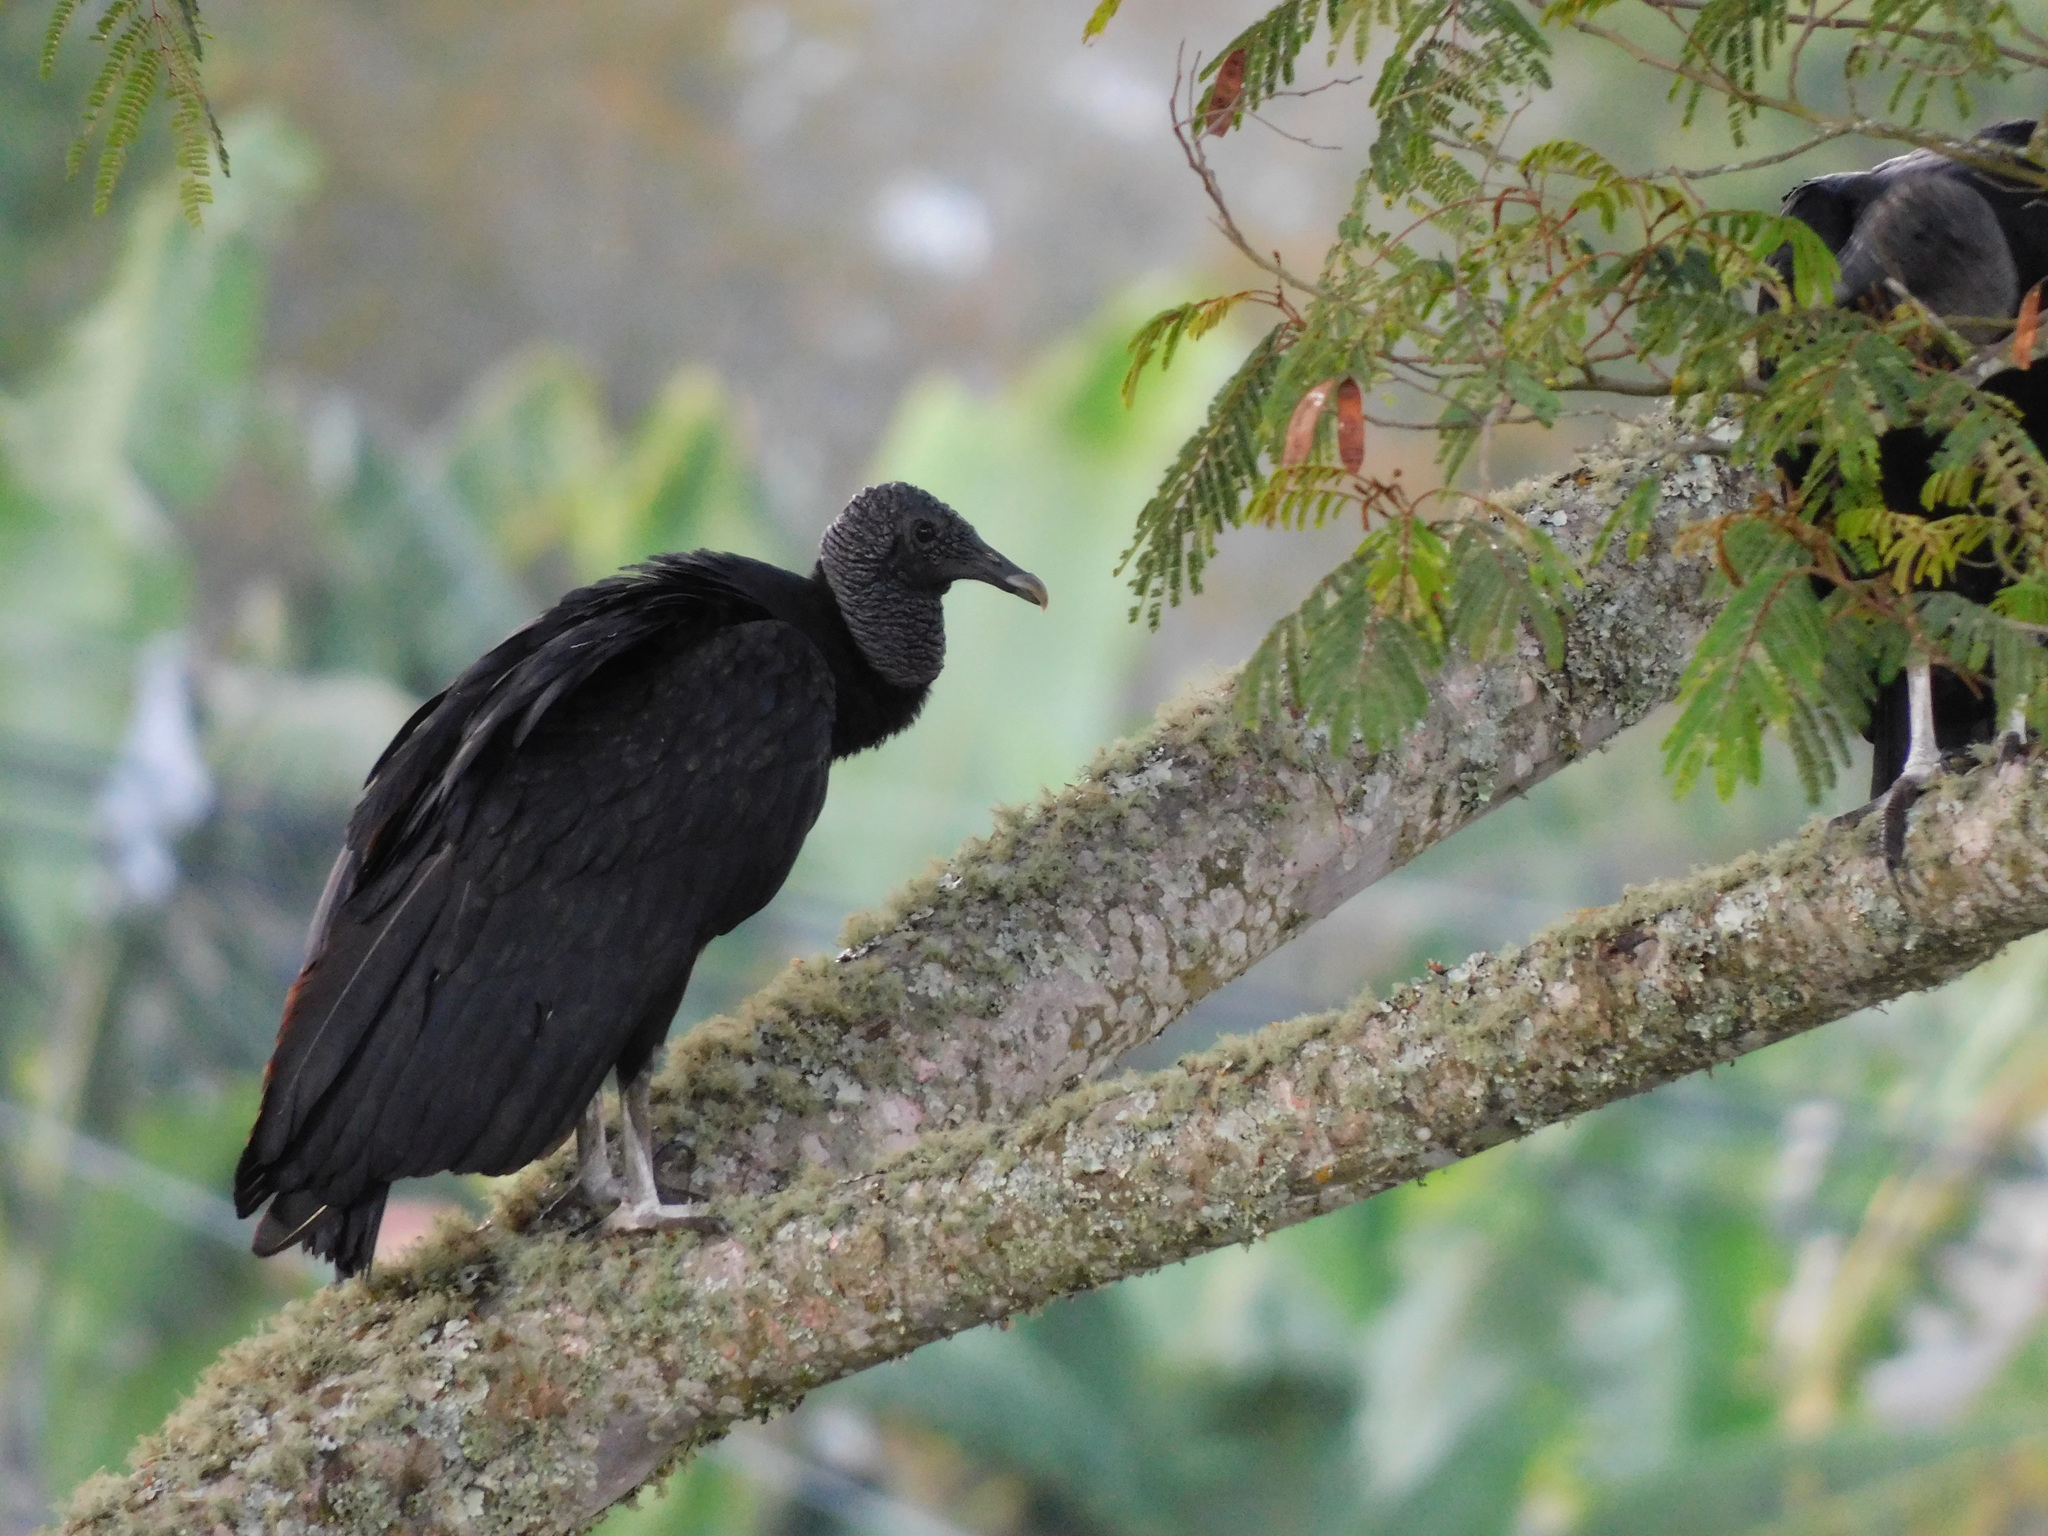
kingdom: Animalia
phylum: Chordata
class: Aves
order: Accipitriformes
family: Cathartidae
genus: Coragyps
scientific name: Coragyps atratus
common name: Black vulture
